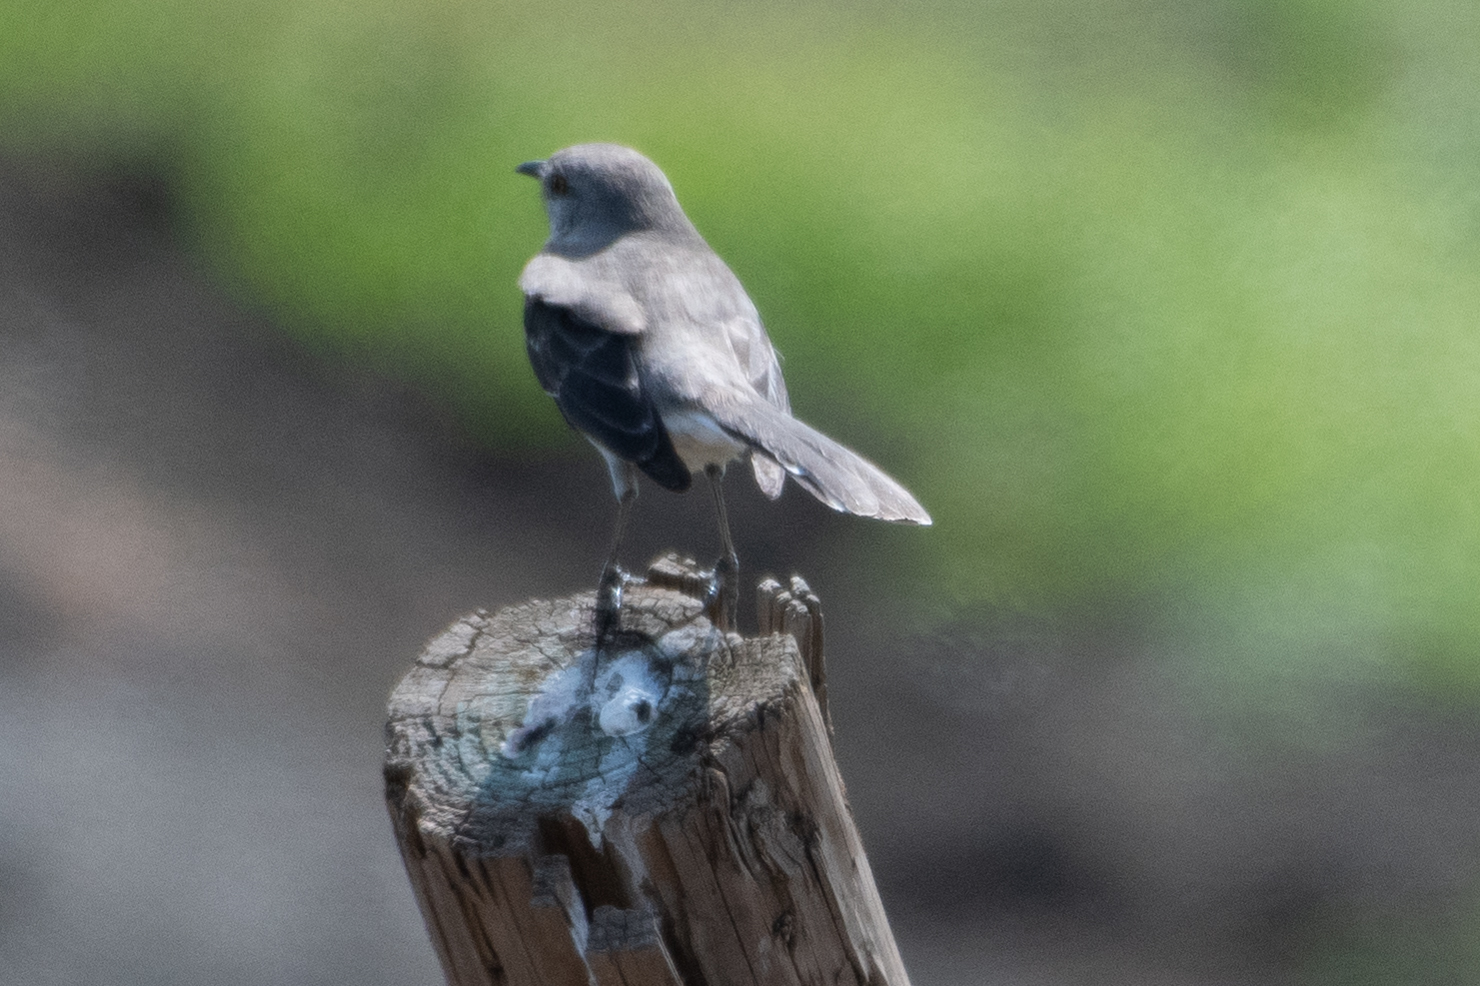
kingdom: Animalia
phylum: Chordata
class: Aves
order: Passeriformes
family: Mimidae
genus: Mimus
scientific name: Mimus polyglottos
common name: Northern mockingbird
